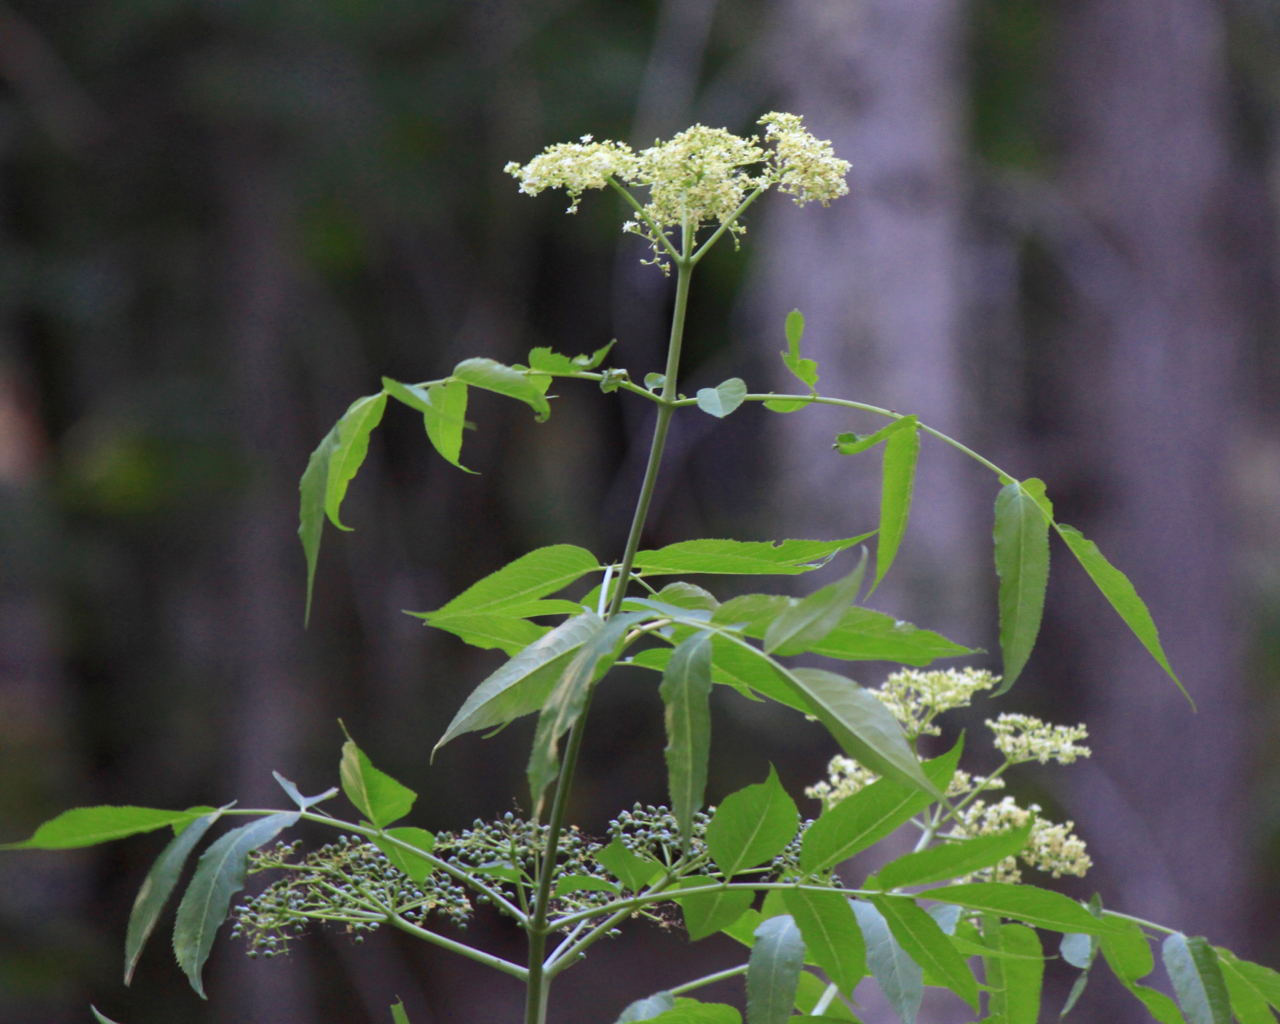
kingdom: Plantae
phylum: Tracheophyta
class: Magnoliopsida
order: Dipsacales
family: Viburnaceae
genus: Sambucus
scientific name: Sambucus cerulea
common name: Blue elder
